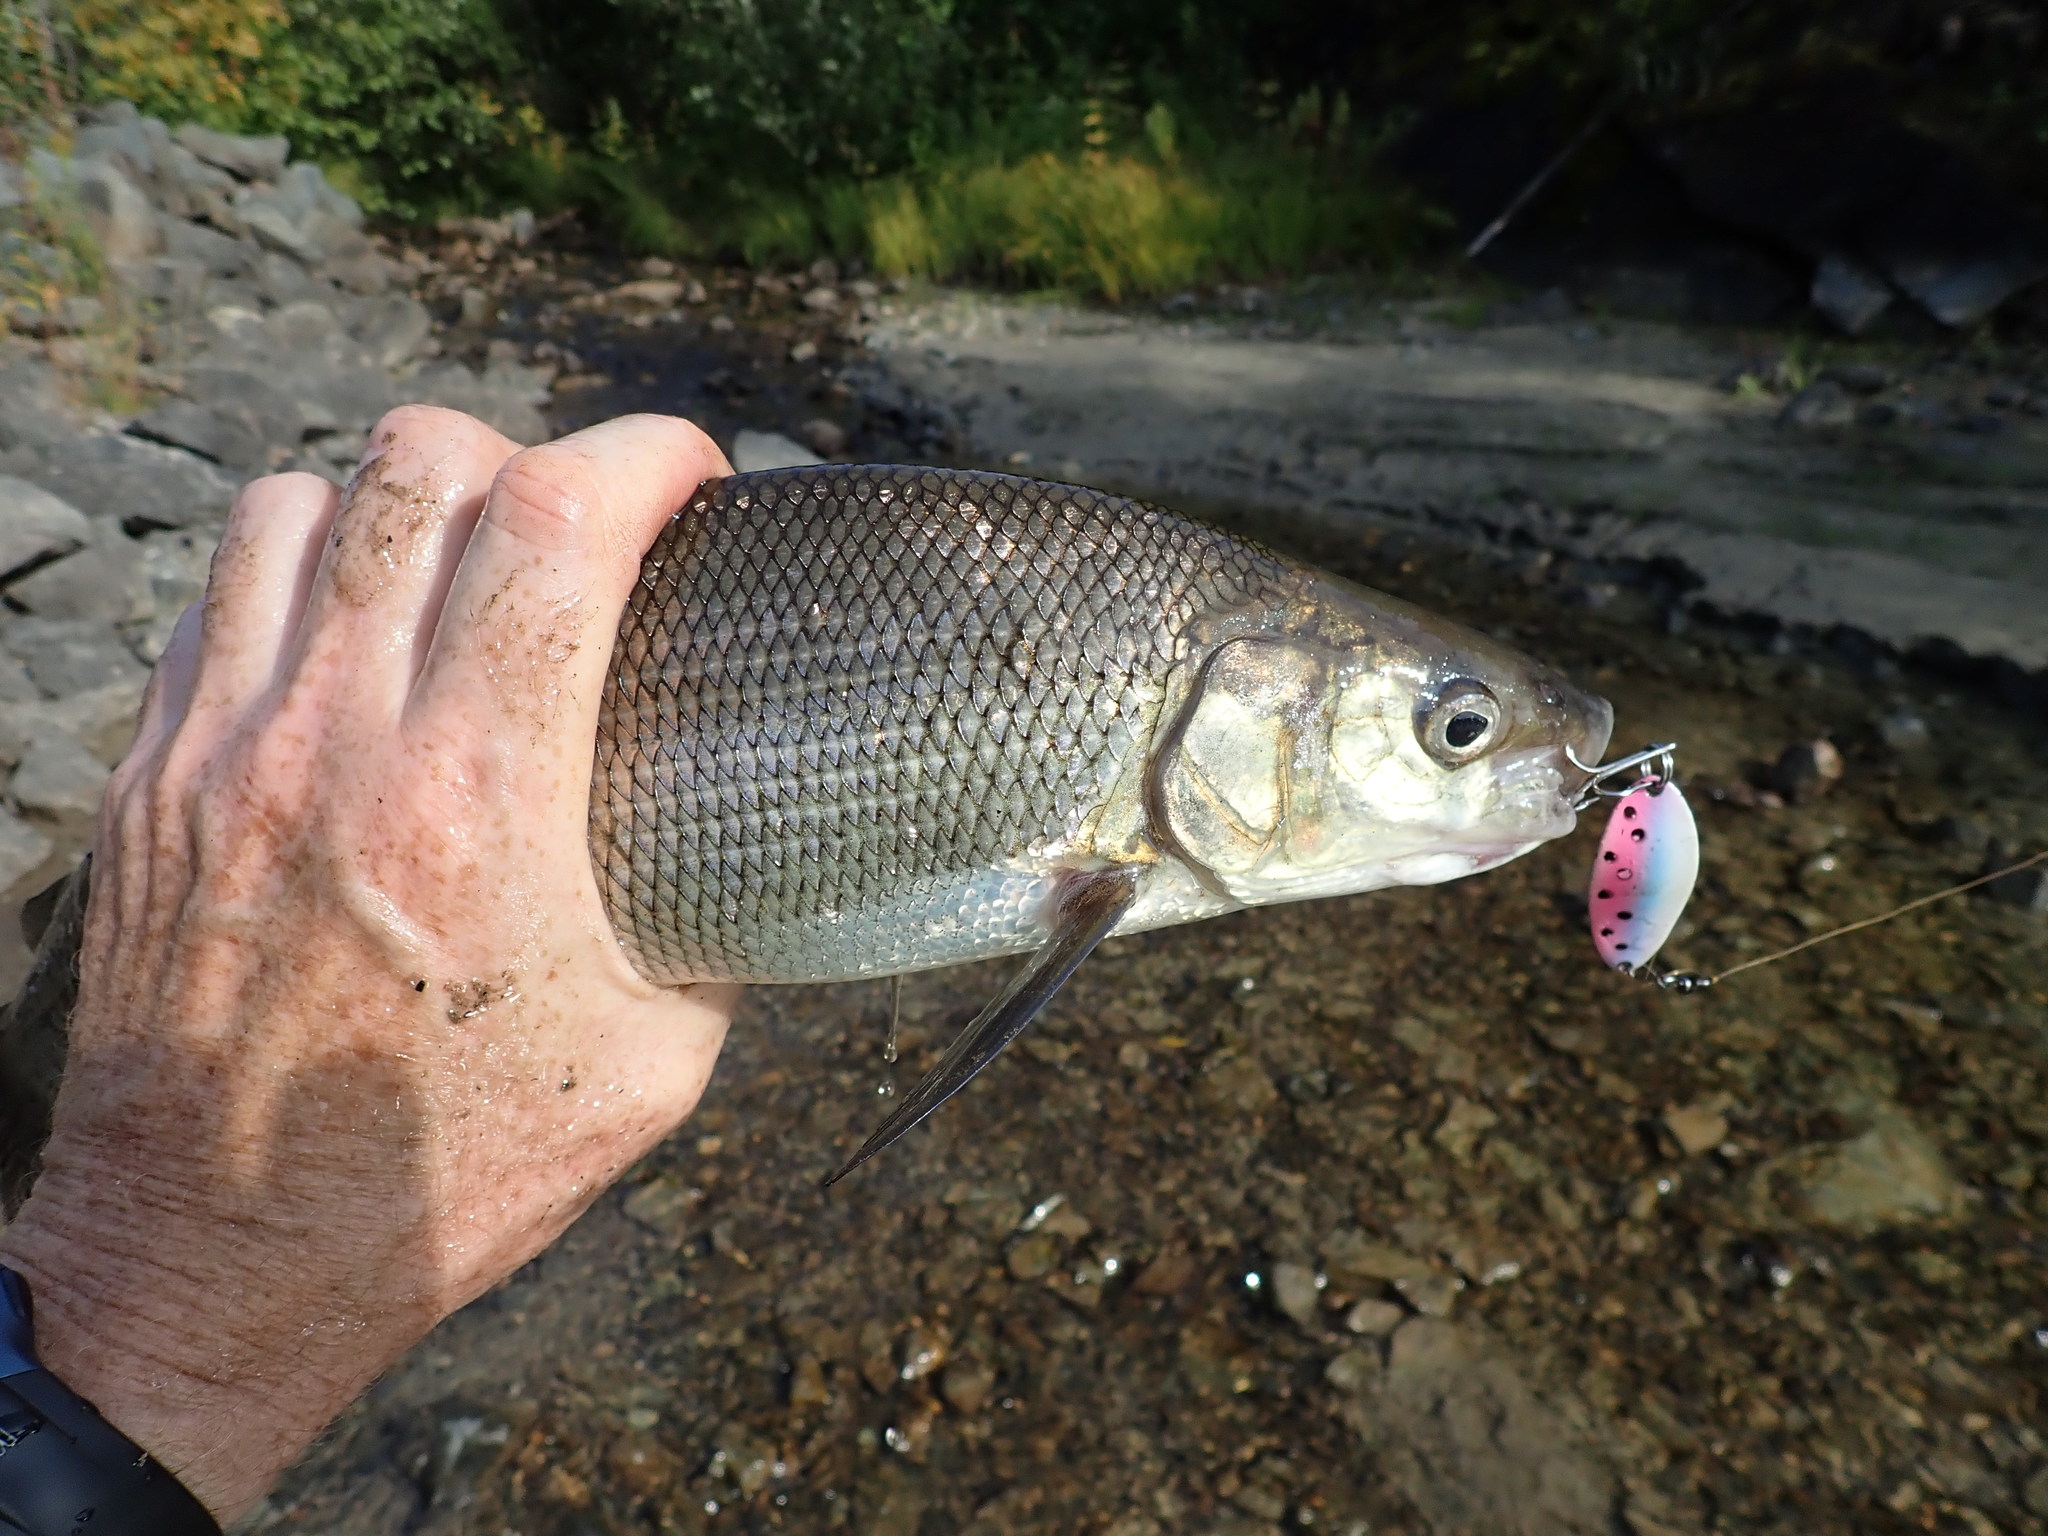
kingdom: Animalia
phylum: Chordata
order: Salmoniformes
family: Salmonidae
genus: Coregonus
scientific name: Coregonus clupeaformis
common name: Lake whitefish
